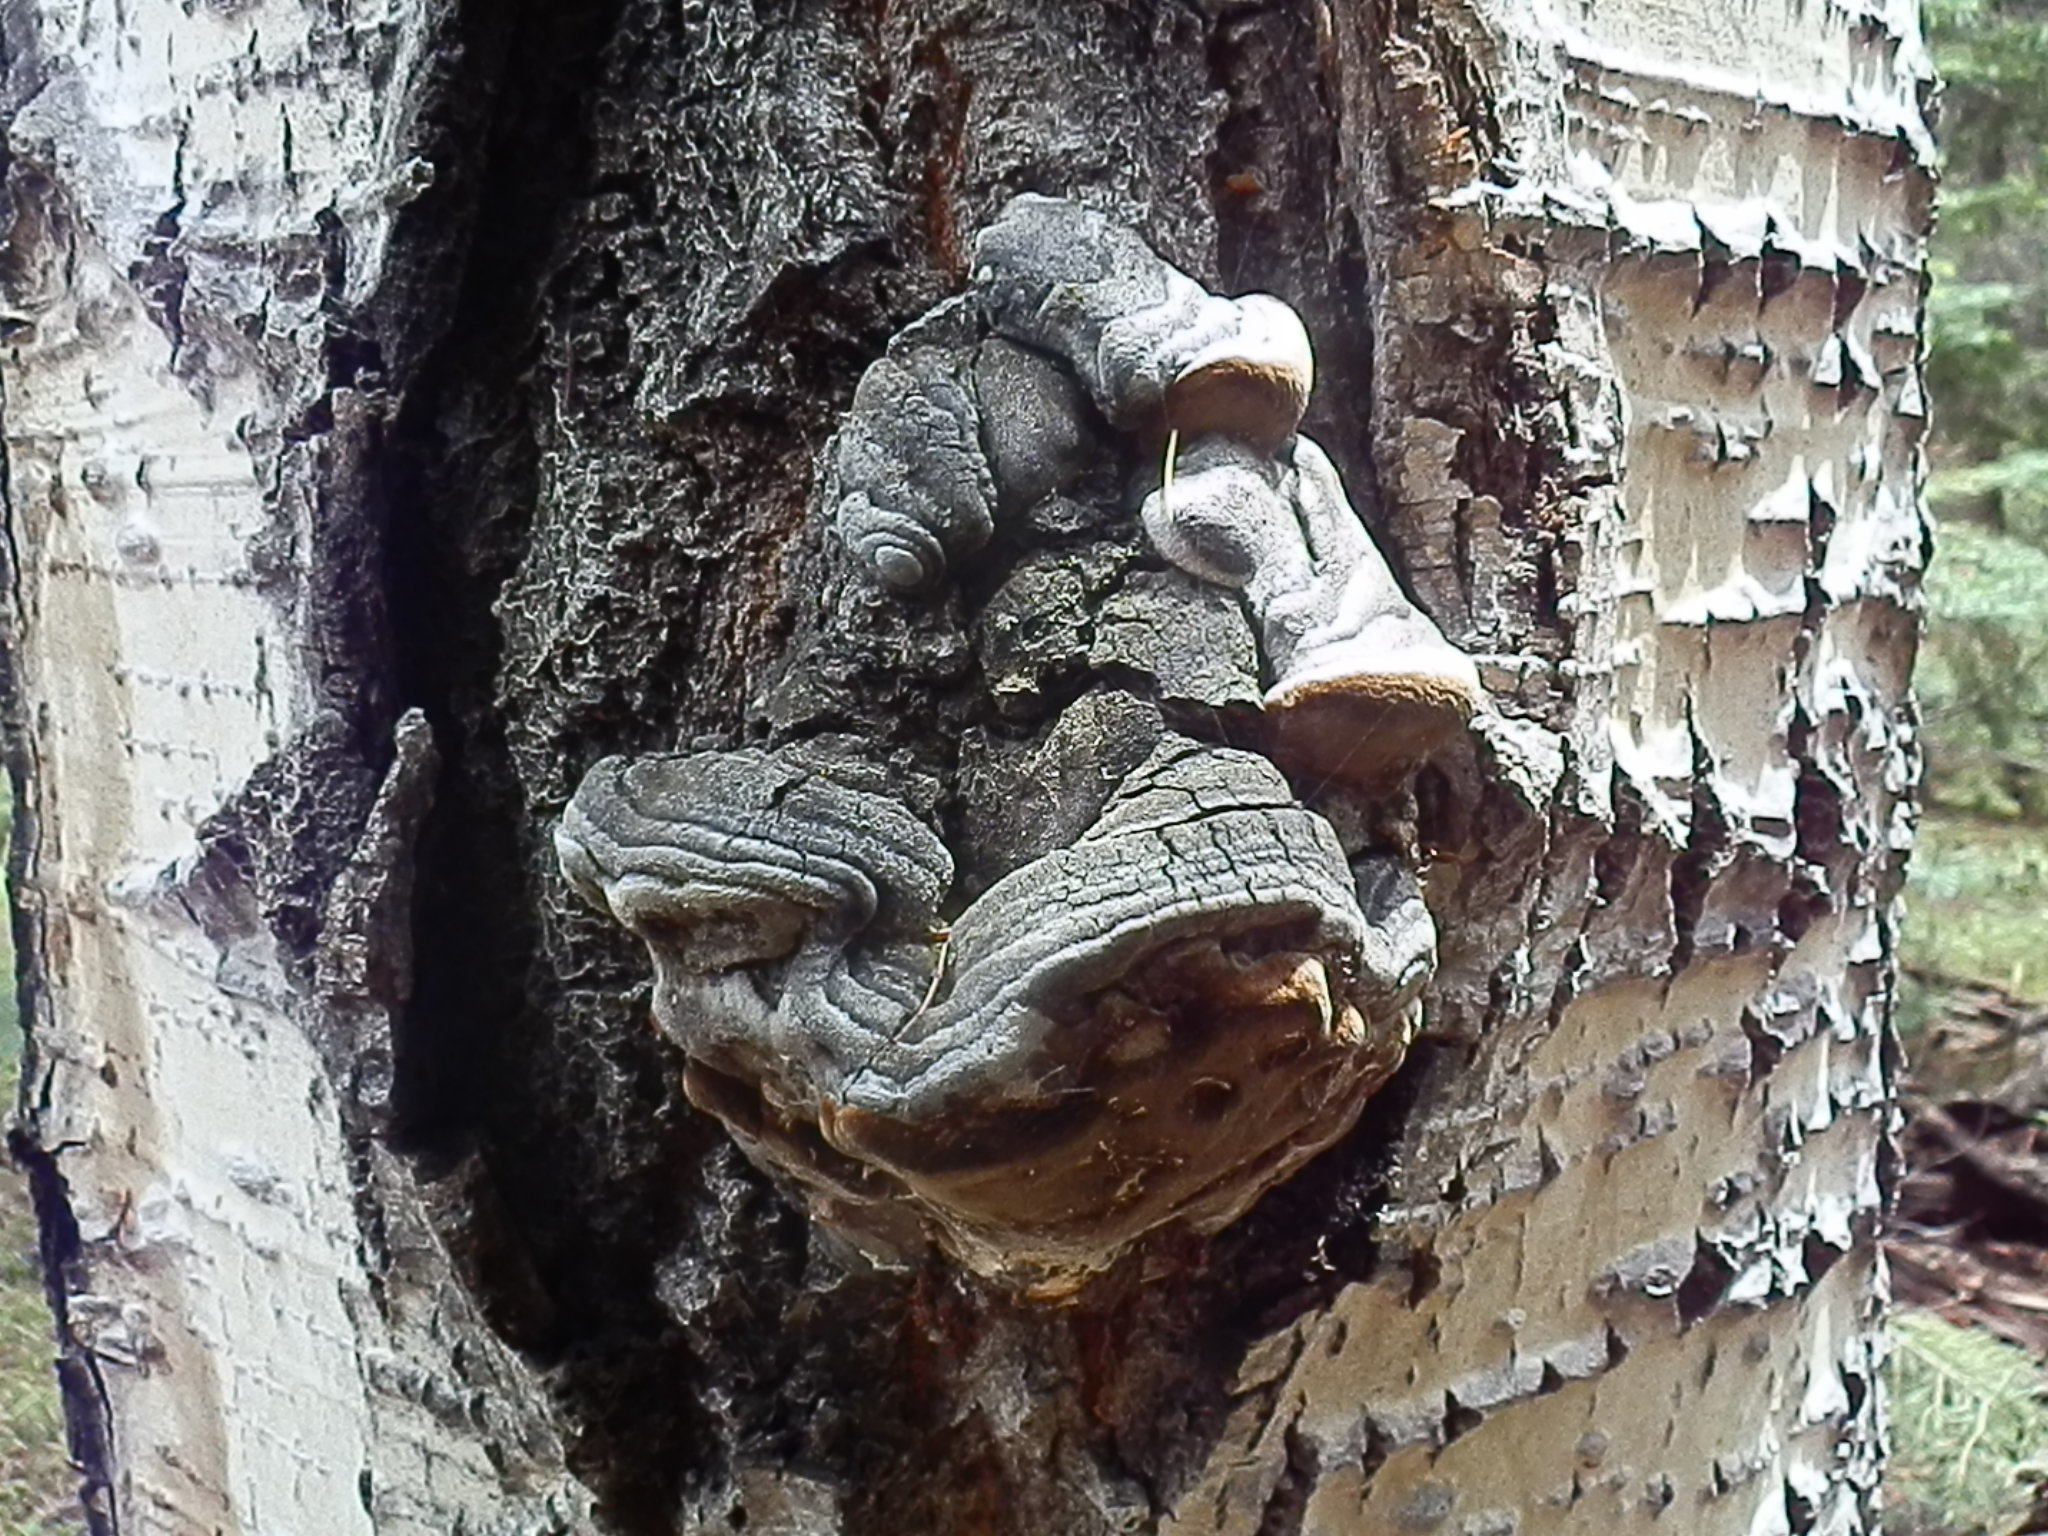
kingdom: Fungi
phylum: Basidiomycota
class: Agaricomycetes
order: Hymenochaetales
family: Hymenochaetaceae
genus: Phellinus
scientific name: Phellinus tremulae
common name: Aspen bracket
